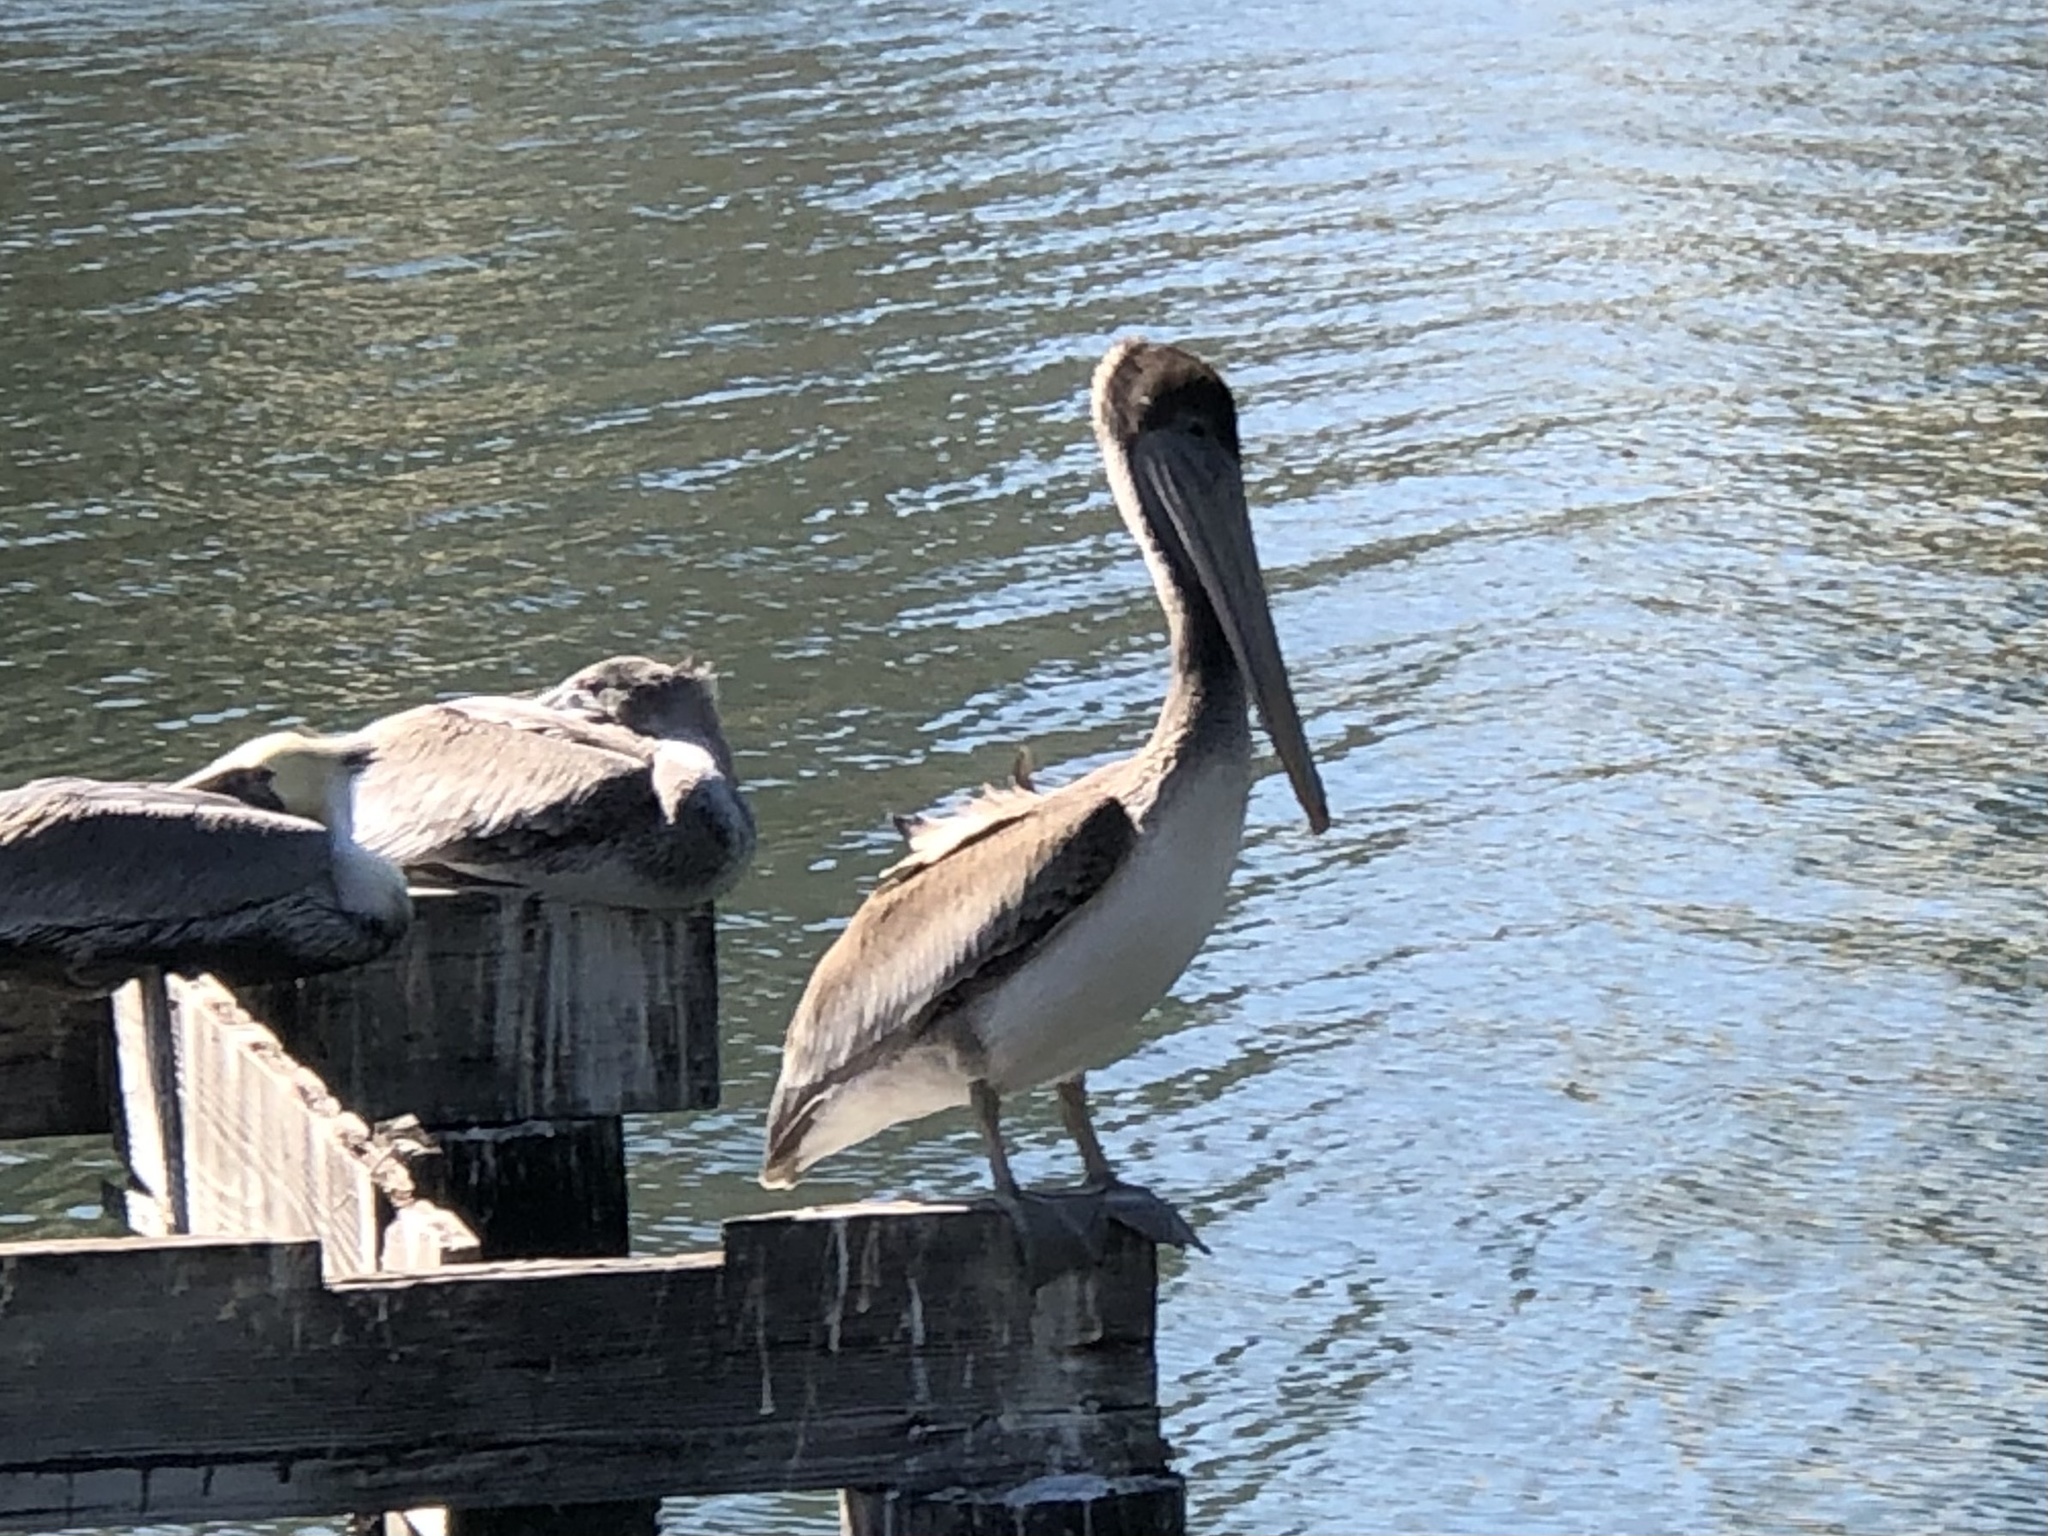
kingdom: Animalia
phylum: Chordata
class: Aves
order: Pelecaniformes
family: Pelecanidae
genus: Pelecanus
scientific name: Pelecanus occidentalis
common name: Brown pelican
